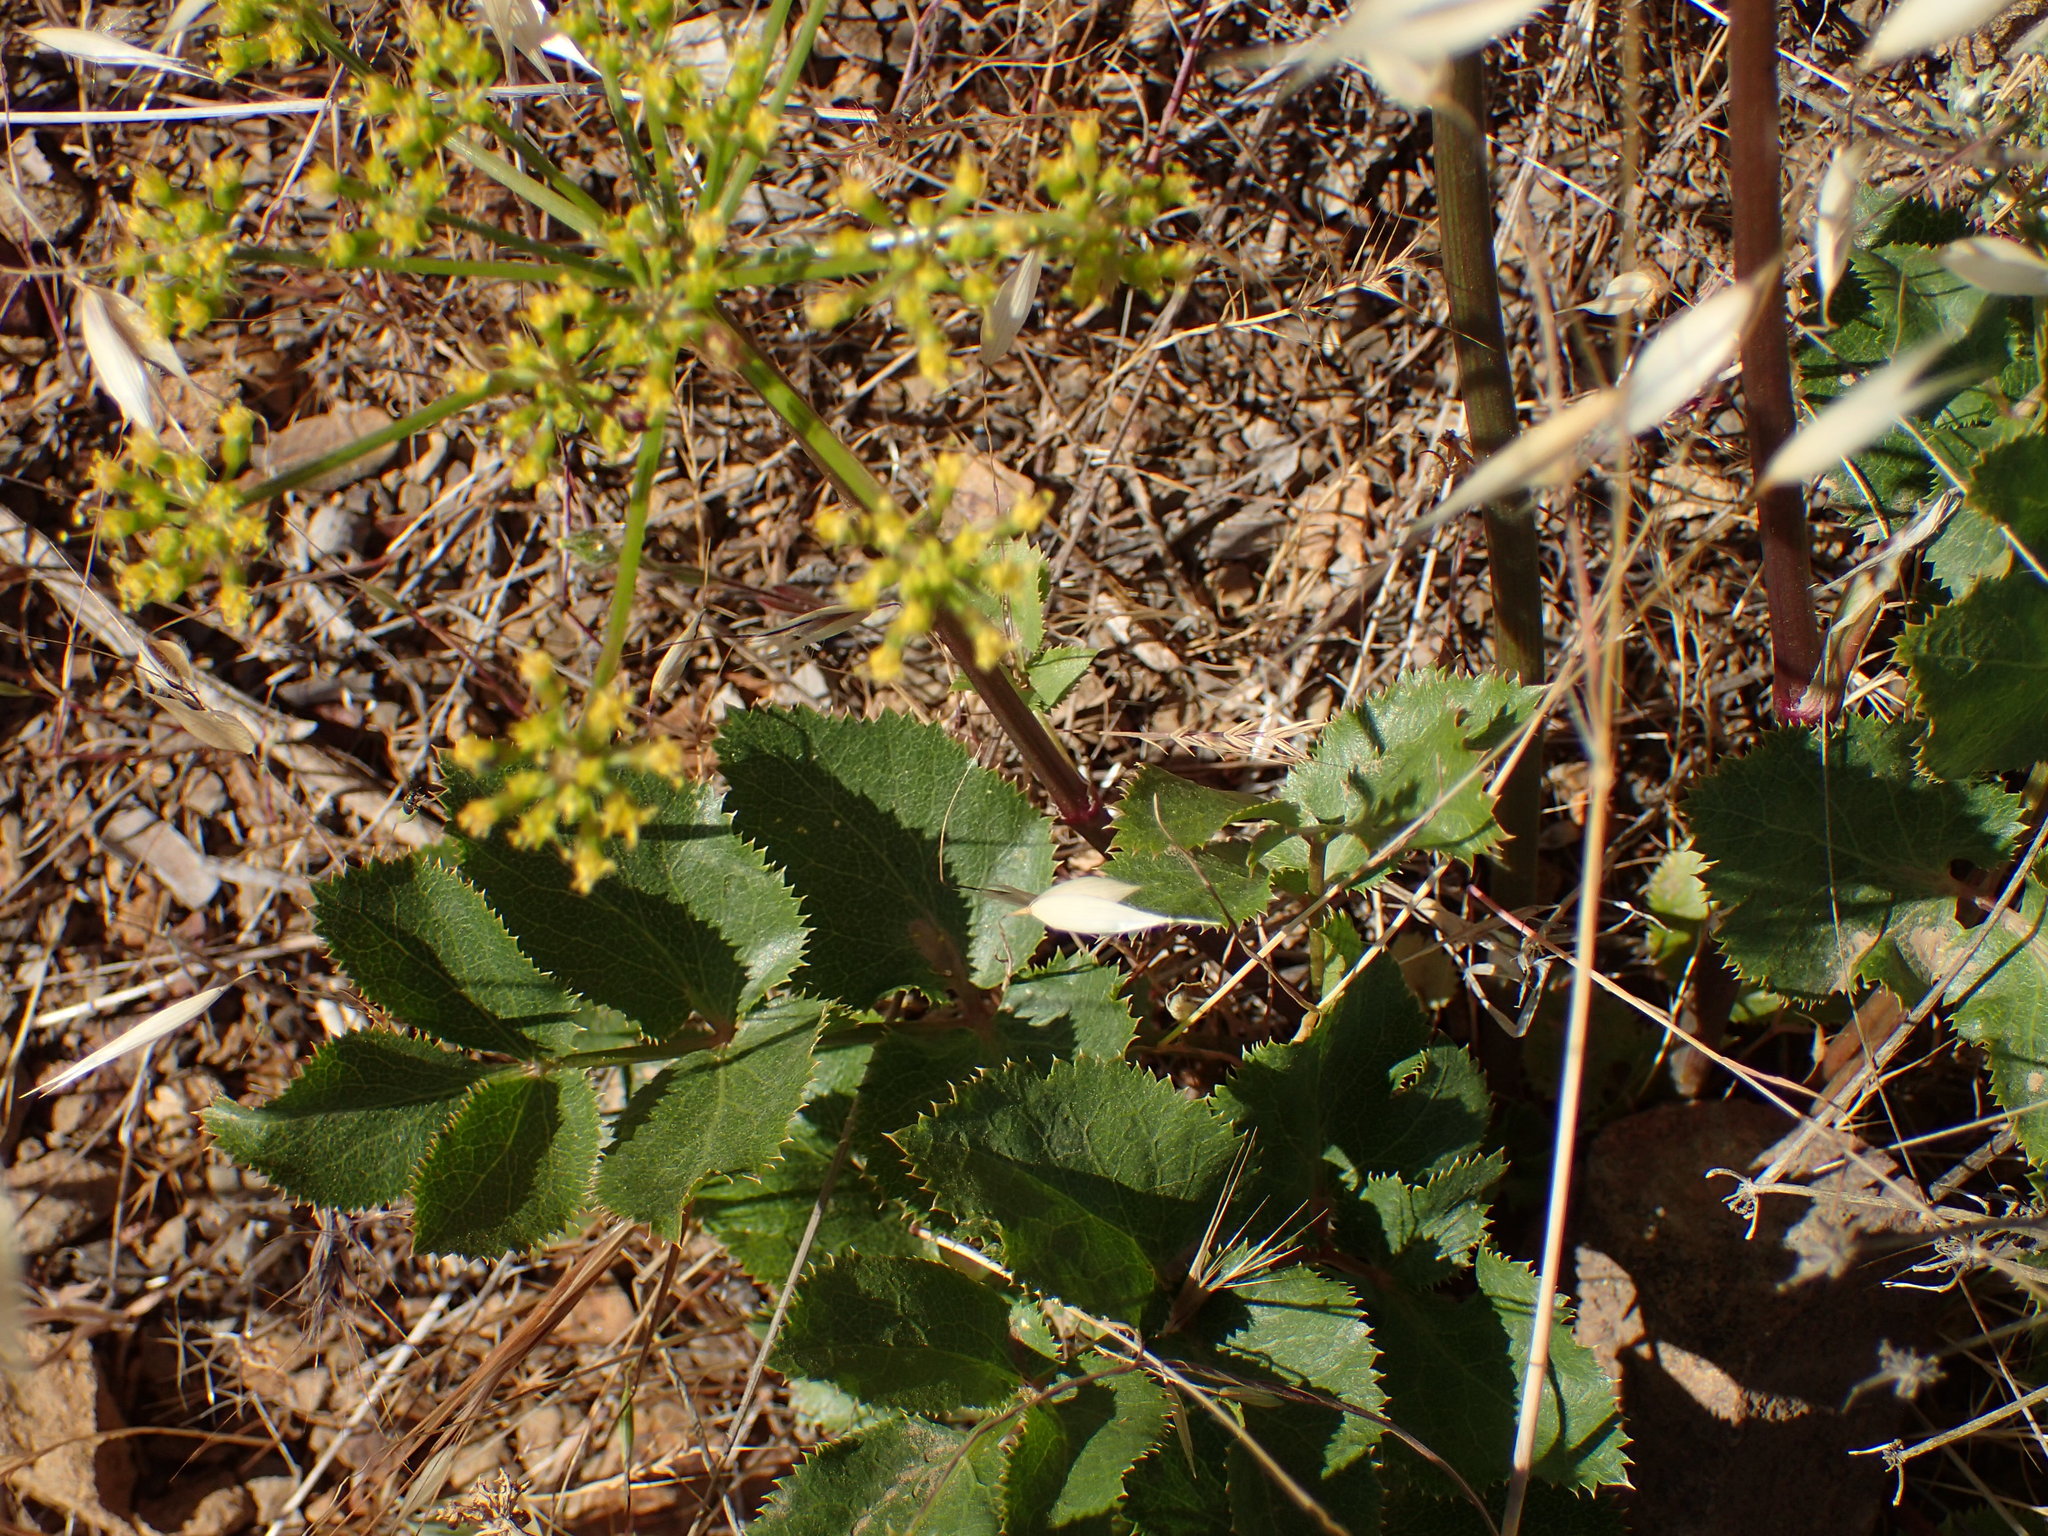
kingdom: Plantae
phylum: Tracheophyta
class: Magnoliopsida
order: Apiales
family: Apiaceae
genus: Tauschia
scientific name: Tauschia arguta
